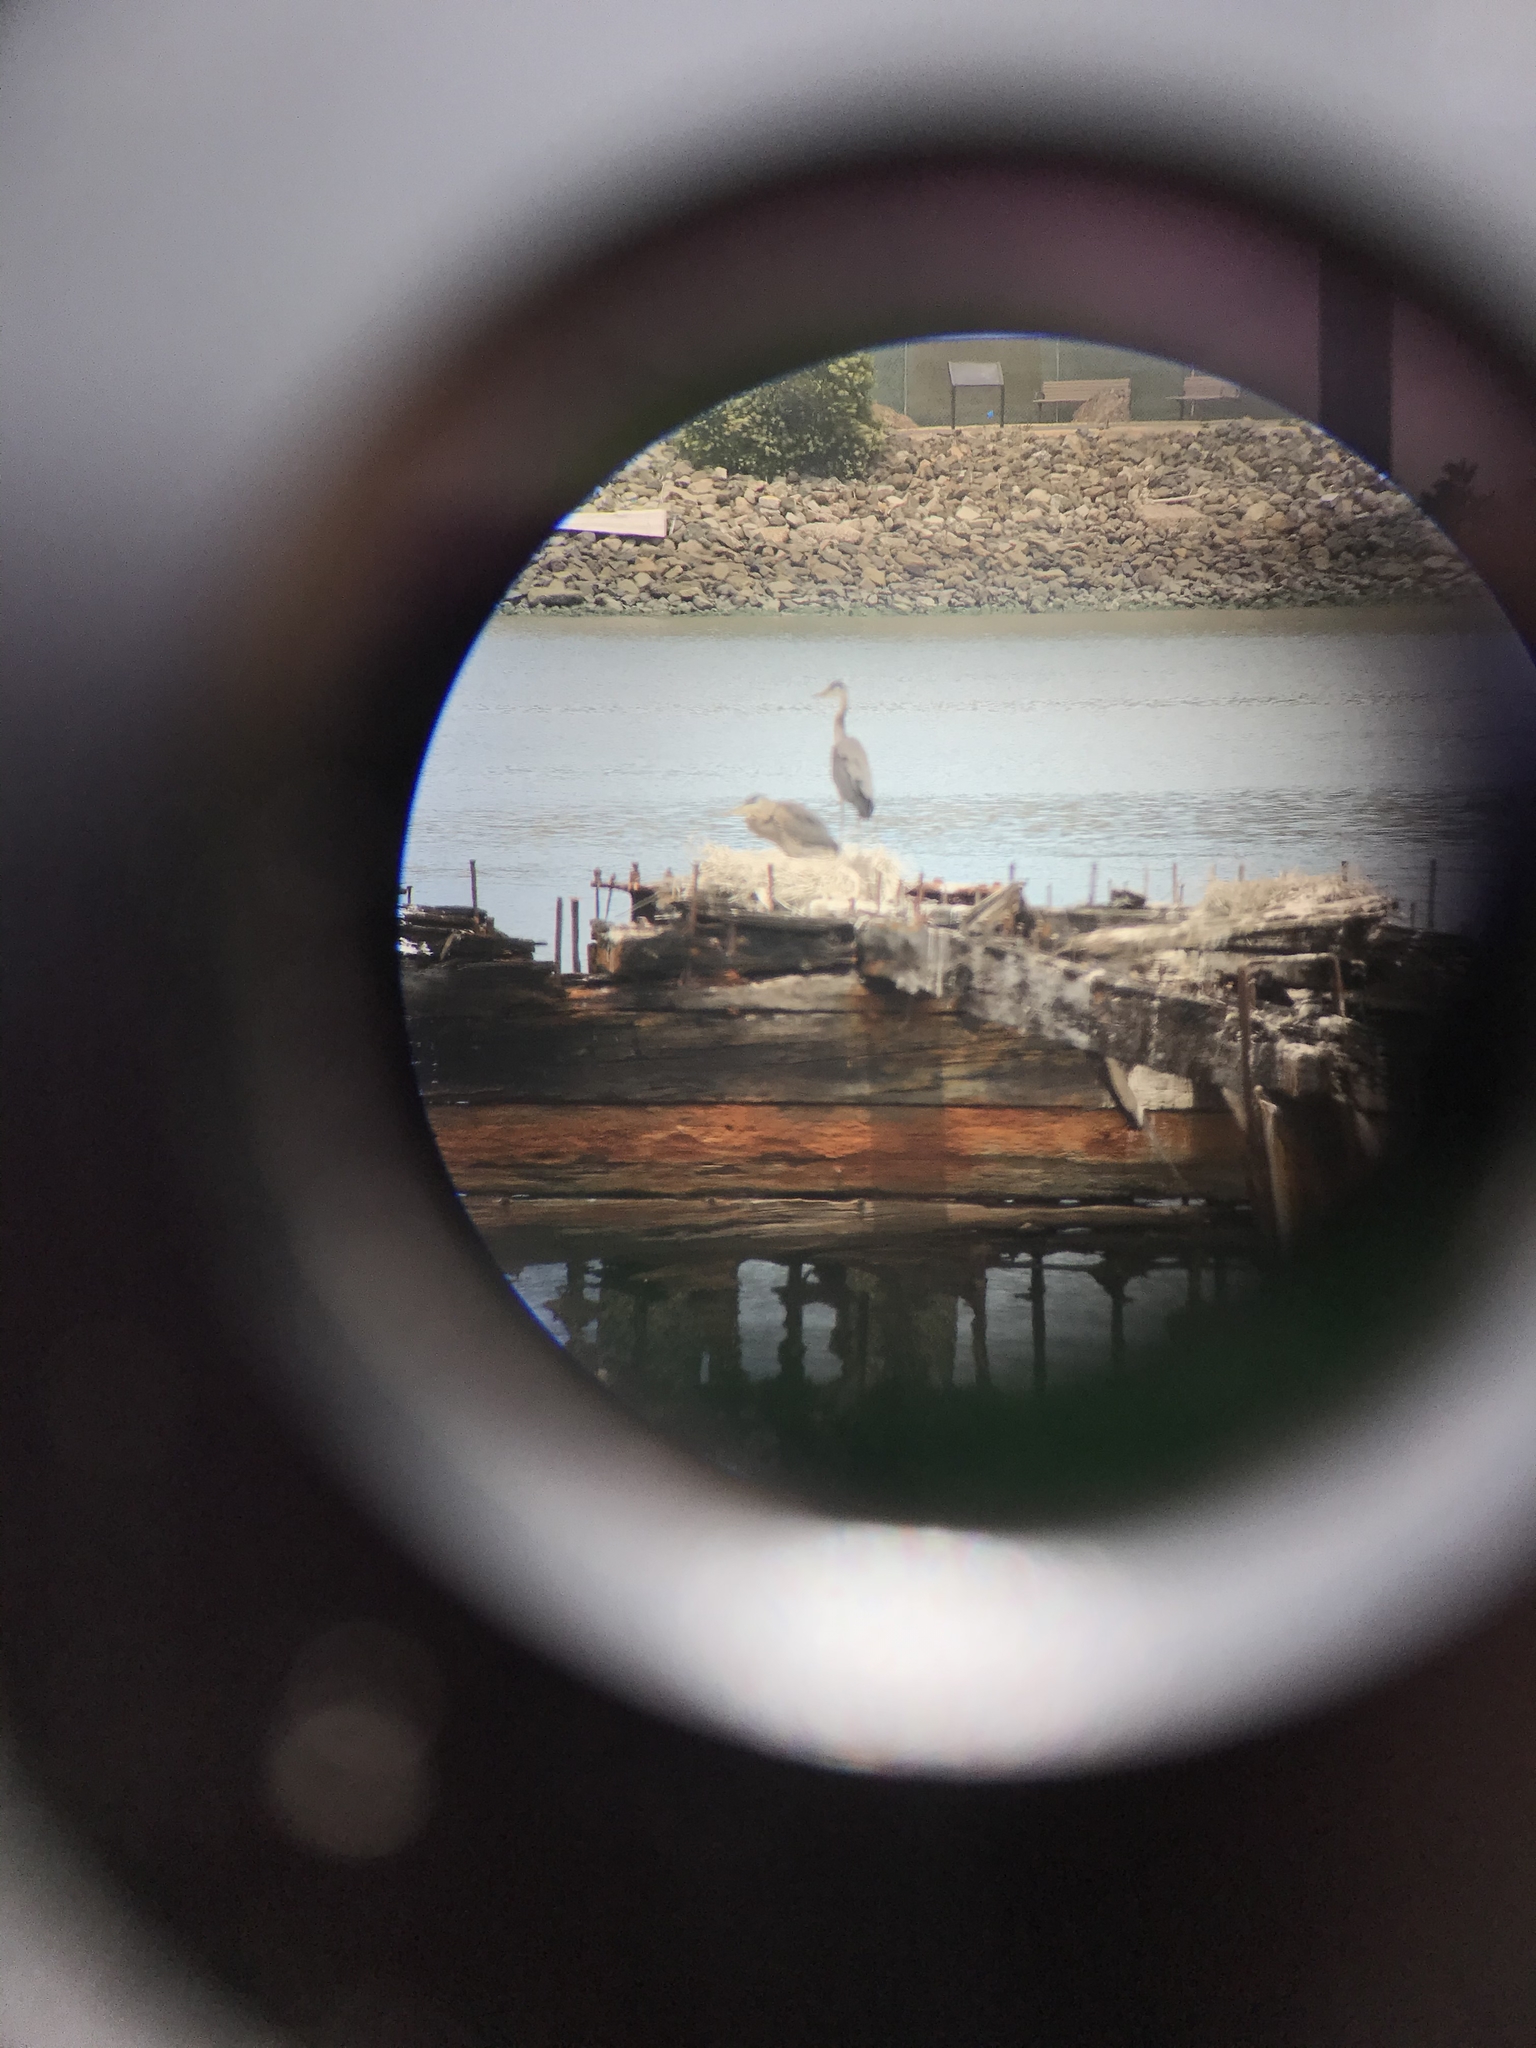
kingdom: Animalia
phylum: Chordata
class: Aves
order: Pelecaniformes
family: Ardeidae
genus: Ardea
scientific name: Ardea herodias
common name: Great blue heron
